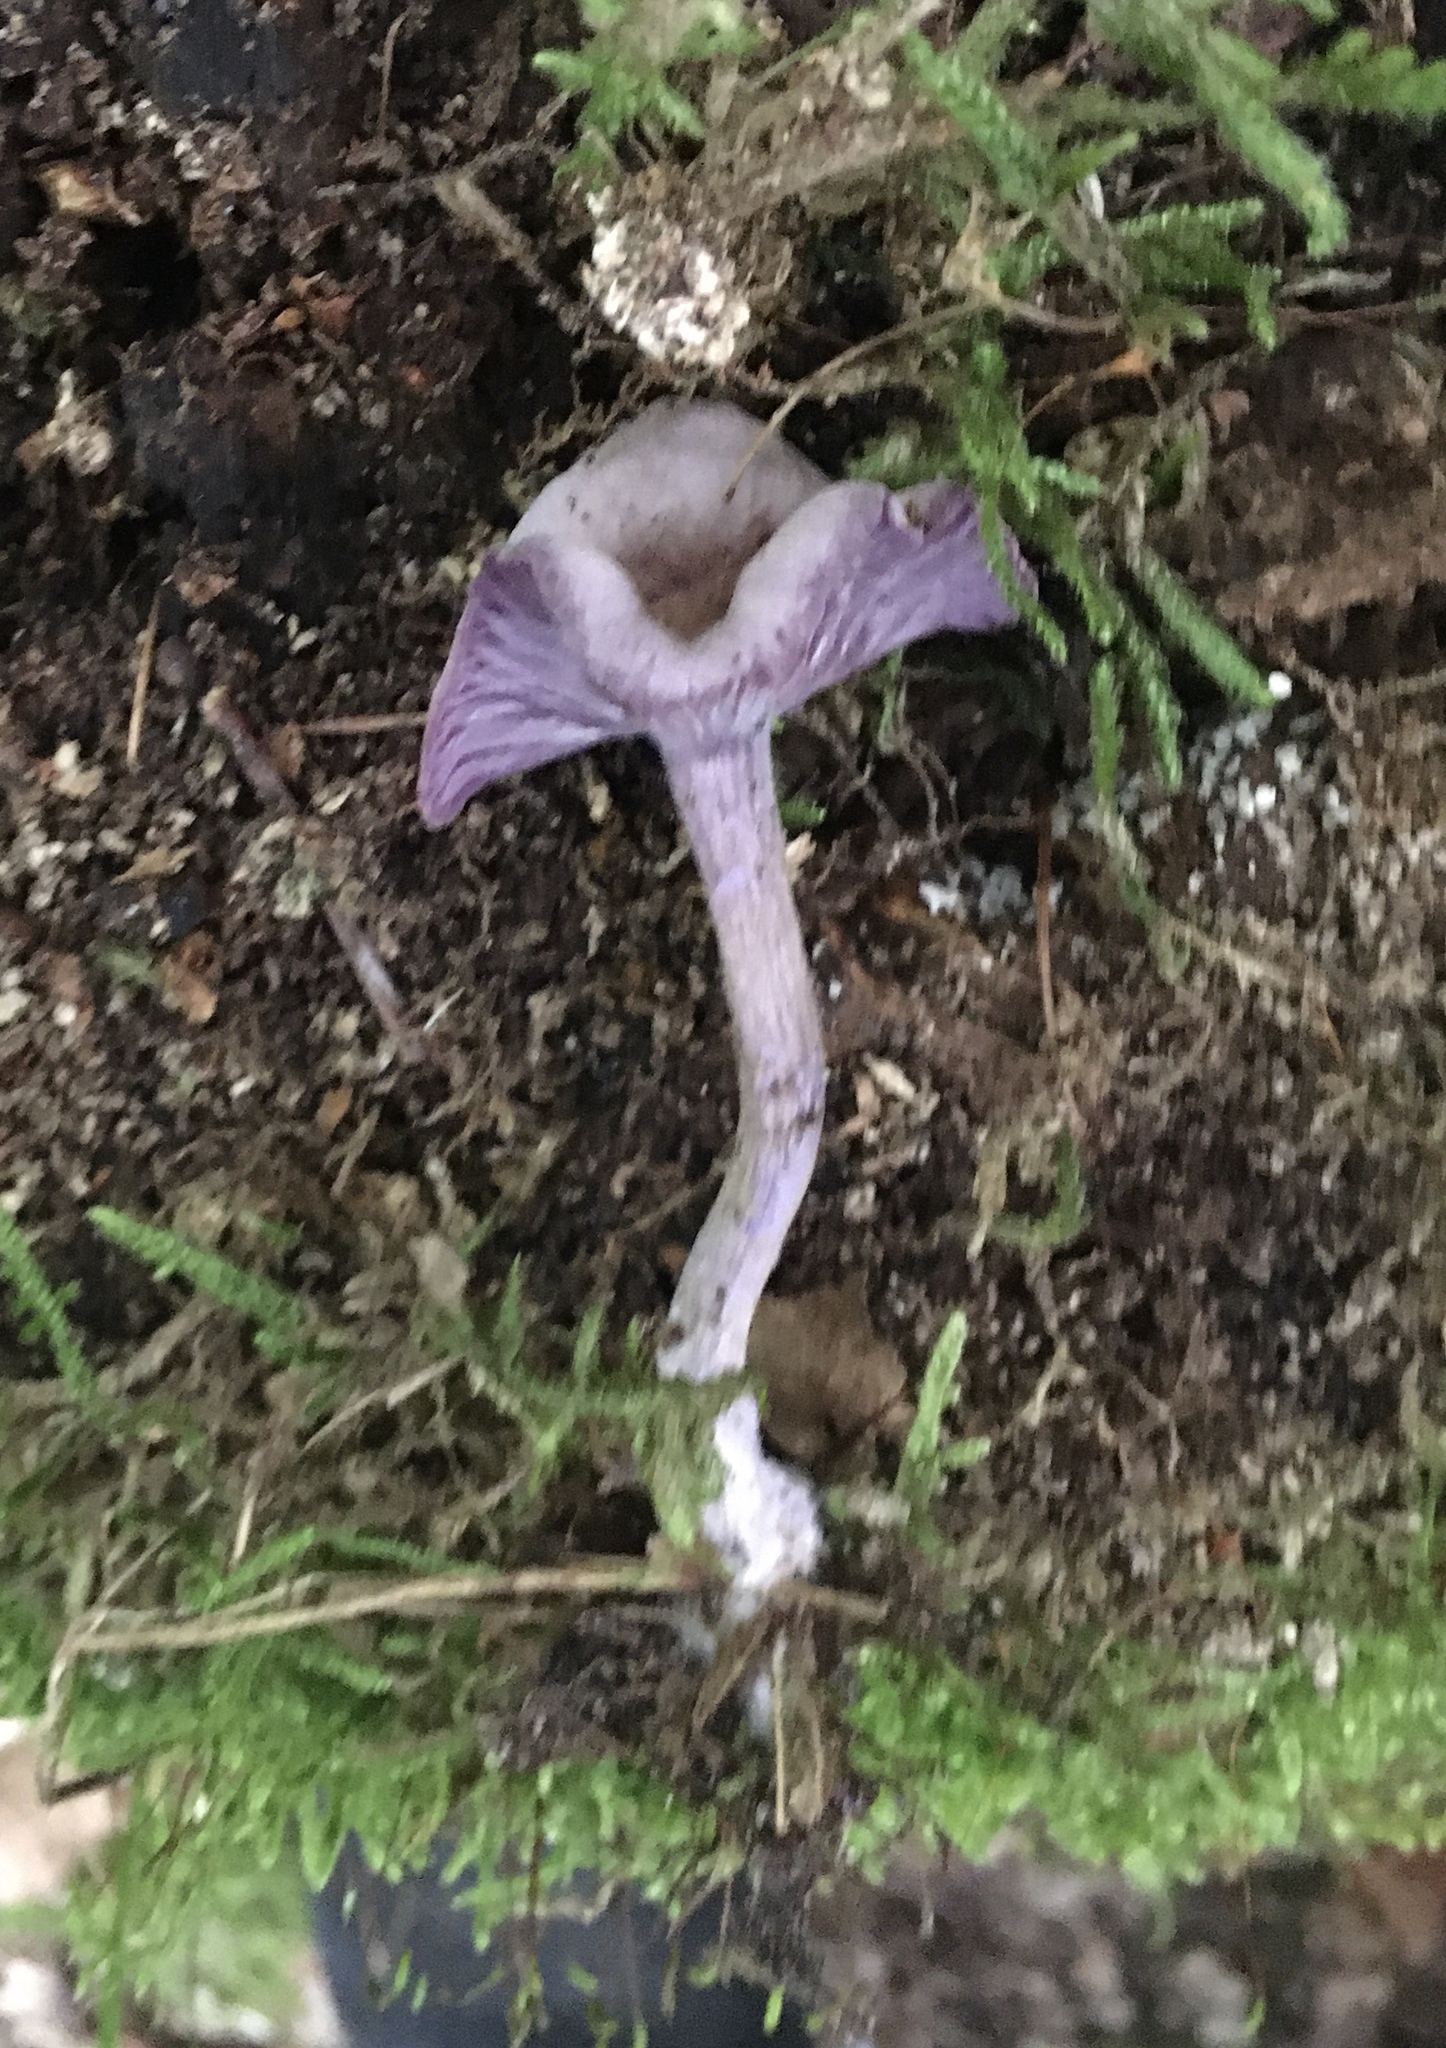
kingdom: Fungi
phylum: Basidiomycota
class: Agaricomycetes
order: Agaricales
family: Hydnangiaceae
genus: Laccaria
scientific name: Laccaria amethystina
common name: Amethyst deceiver
